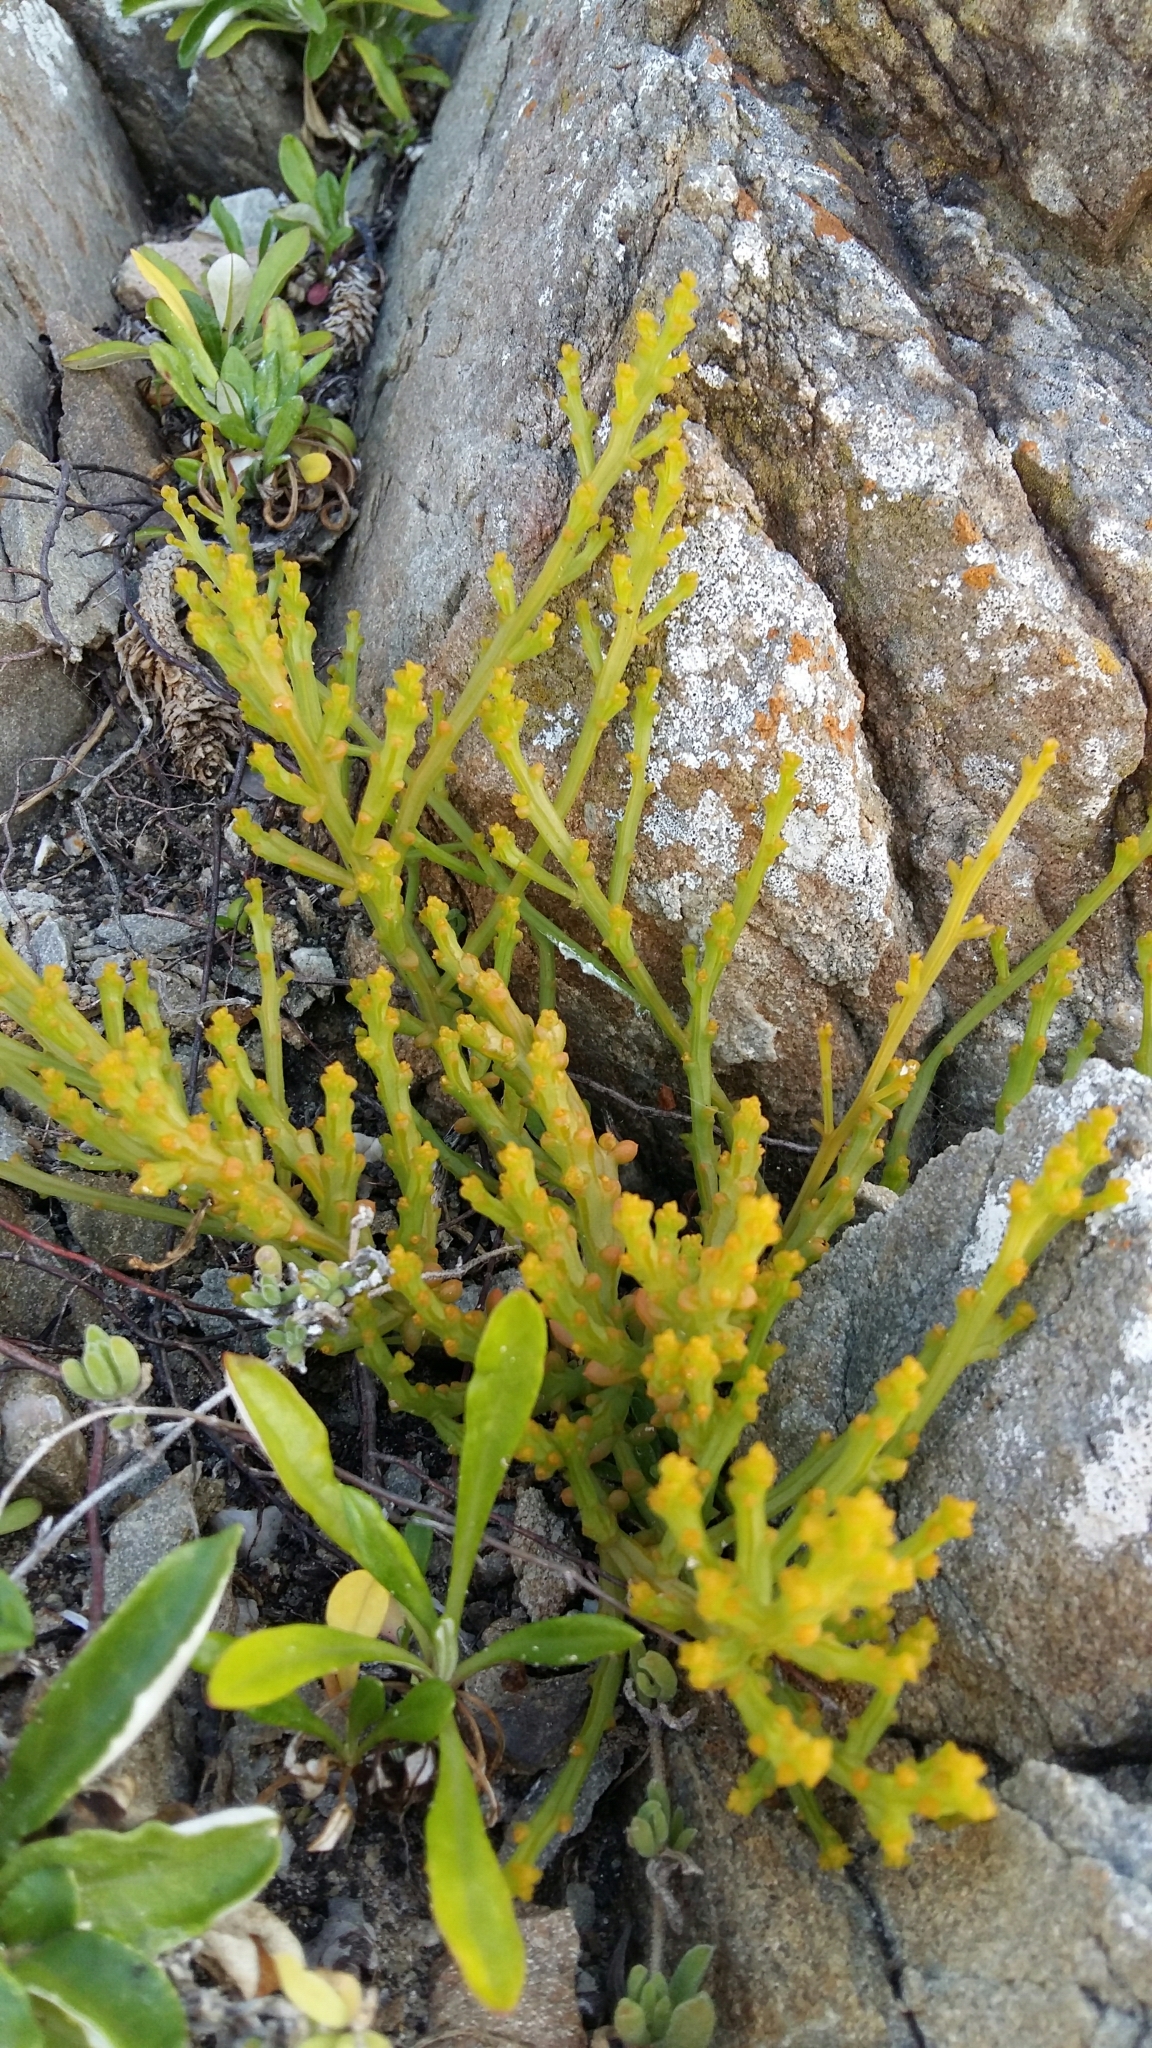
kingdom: Plantae
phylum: Tracheophyta
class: Magnoliopsida
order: Santalales
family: Thesiaceae
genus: Thesium
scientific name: Thesium fragile
